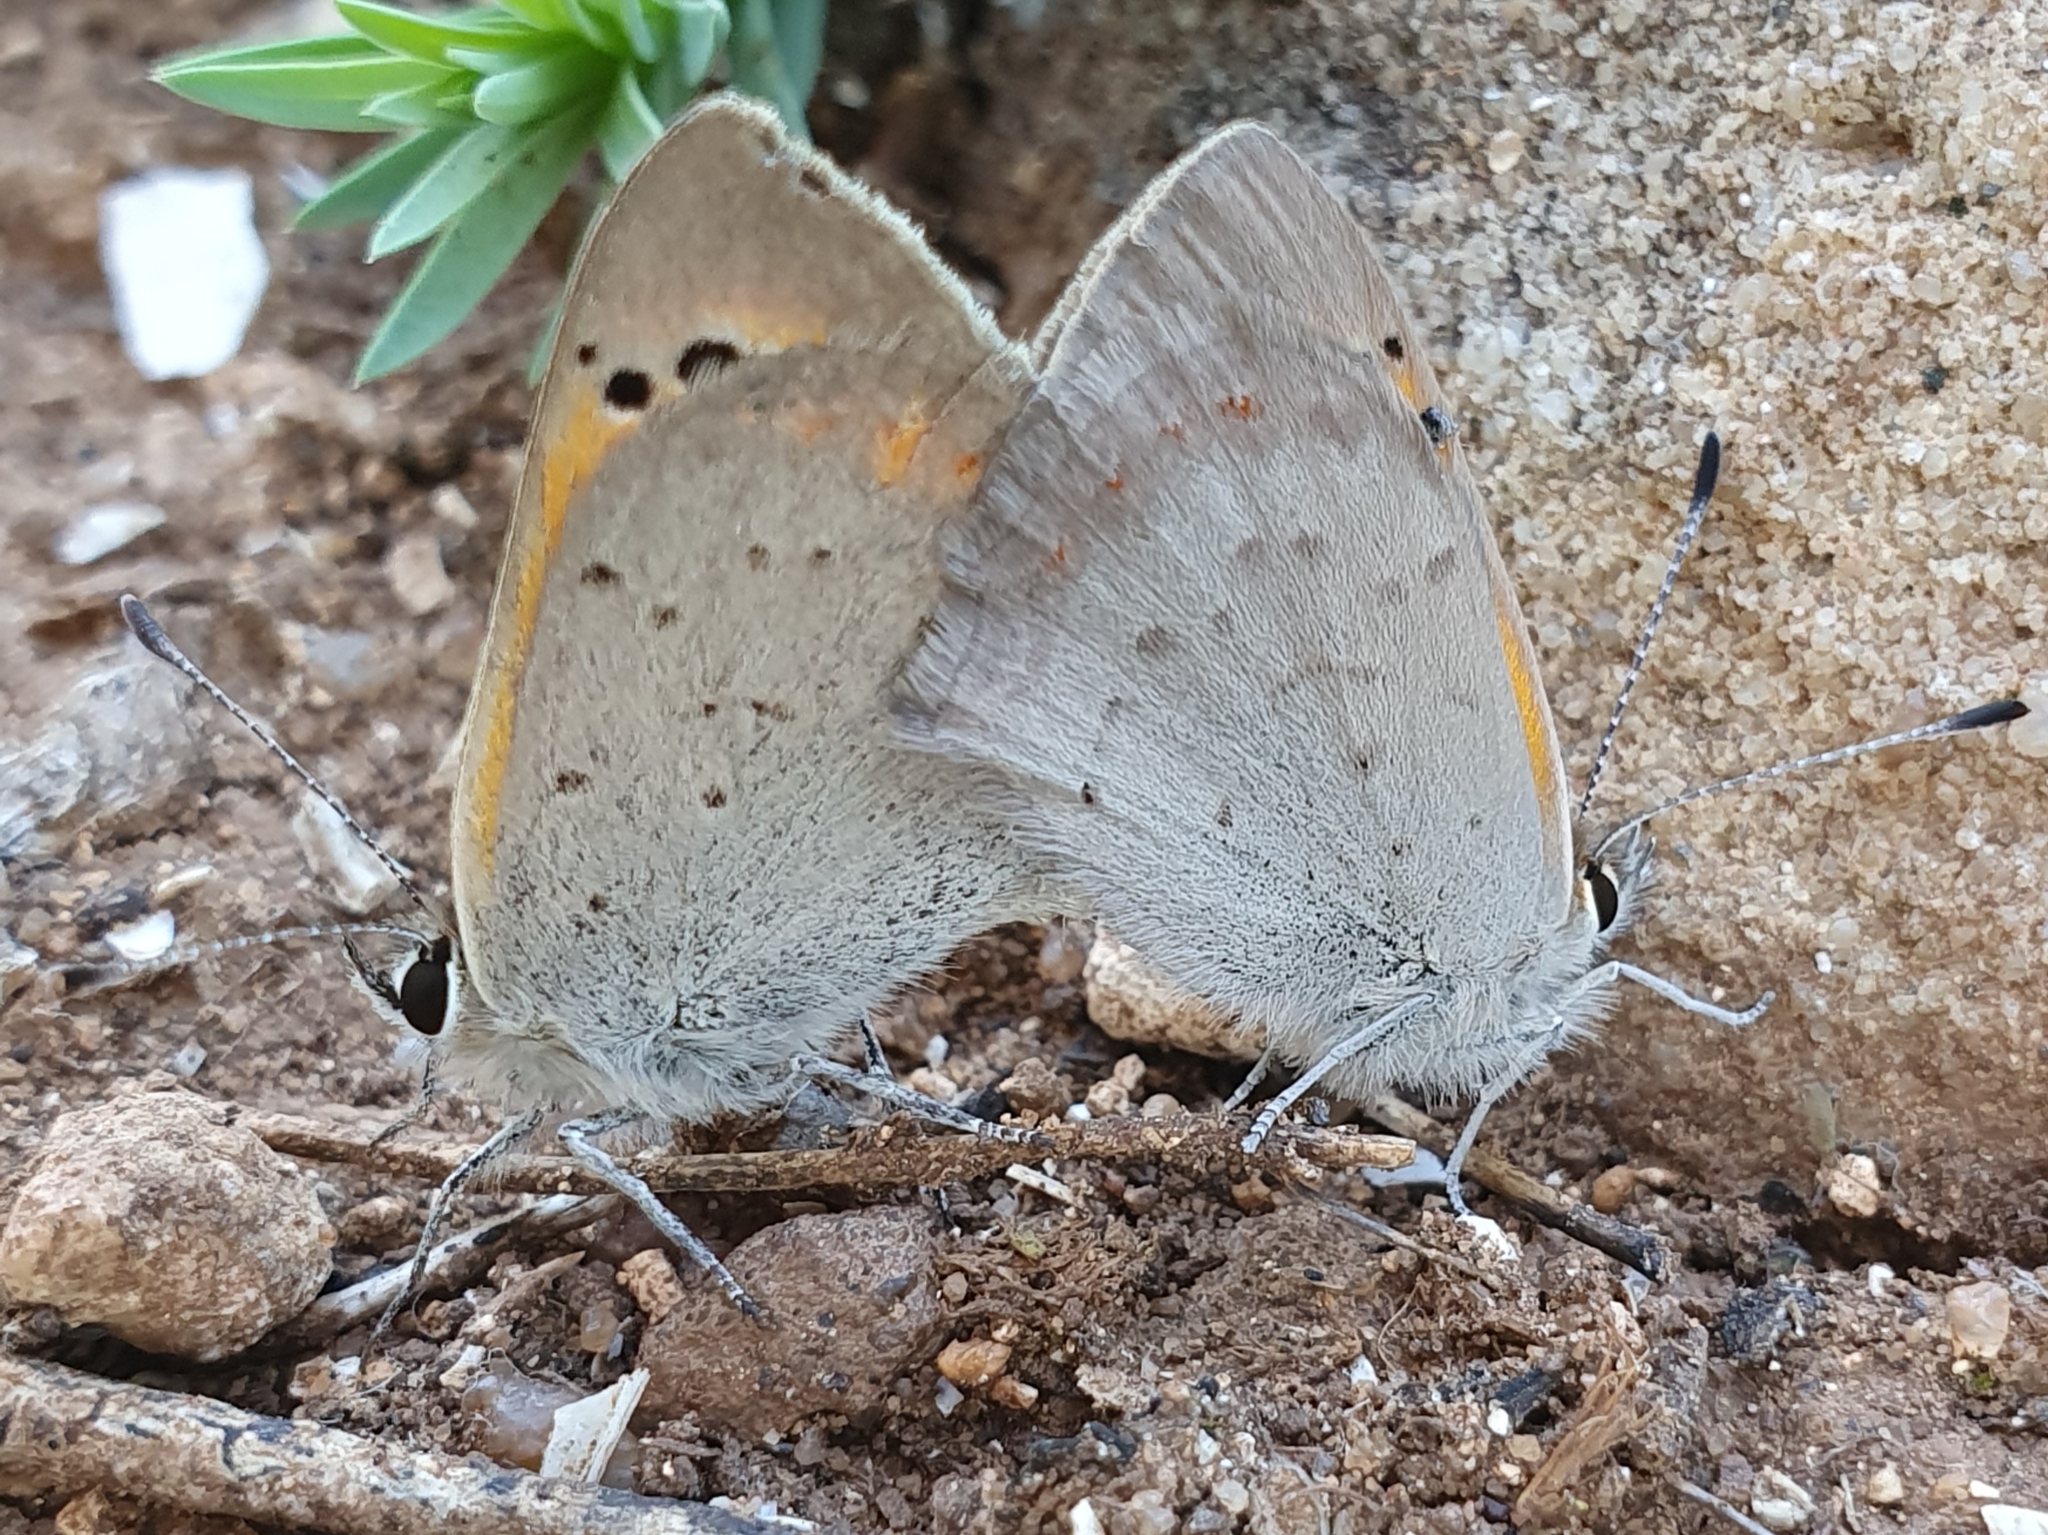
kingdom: Animalia
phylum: Arthropoda
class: Insecta
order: Lepidoptera
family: Lycaenidae
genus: Lycaena
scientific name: Lycaena phlaeas
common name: Small copper
